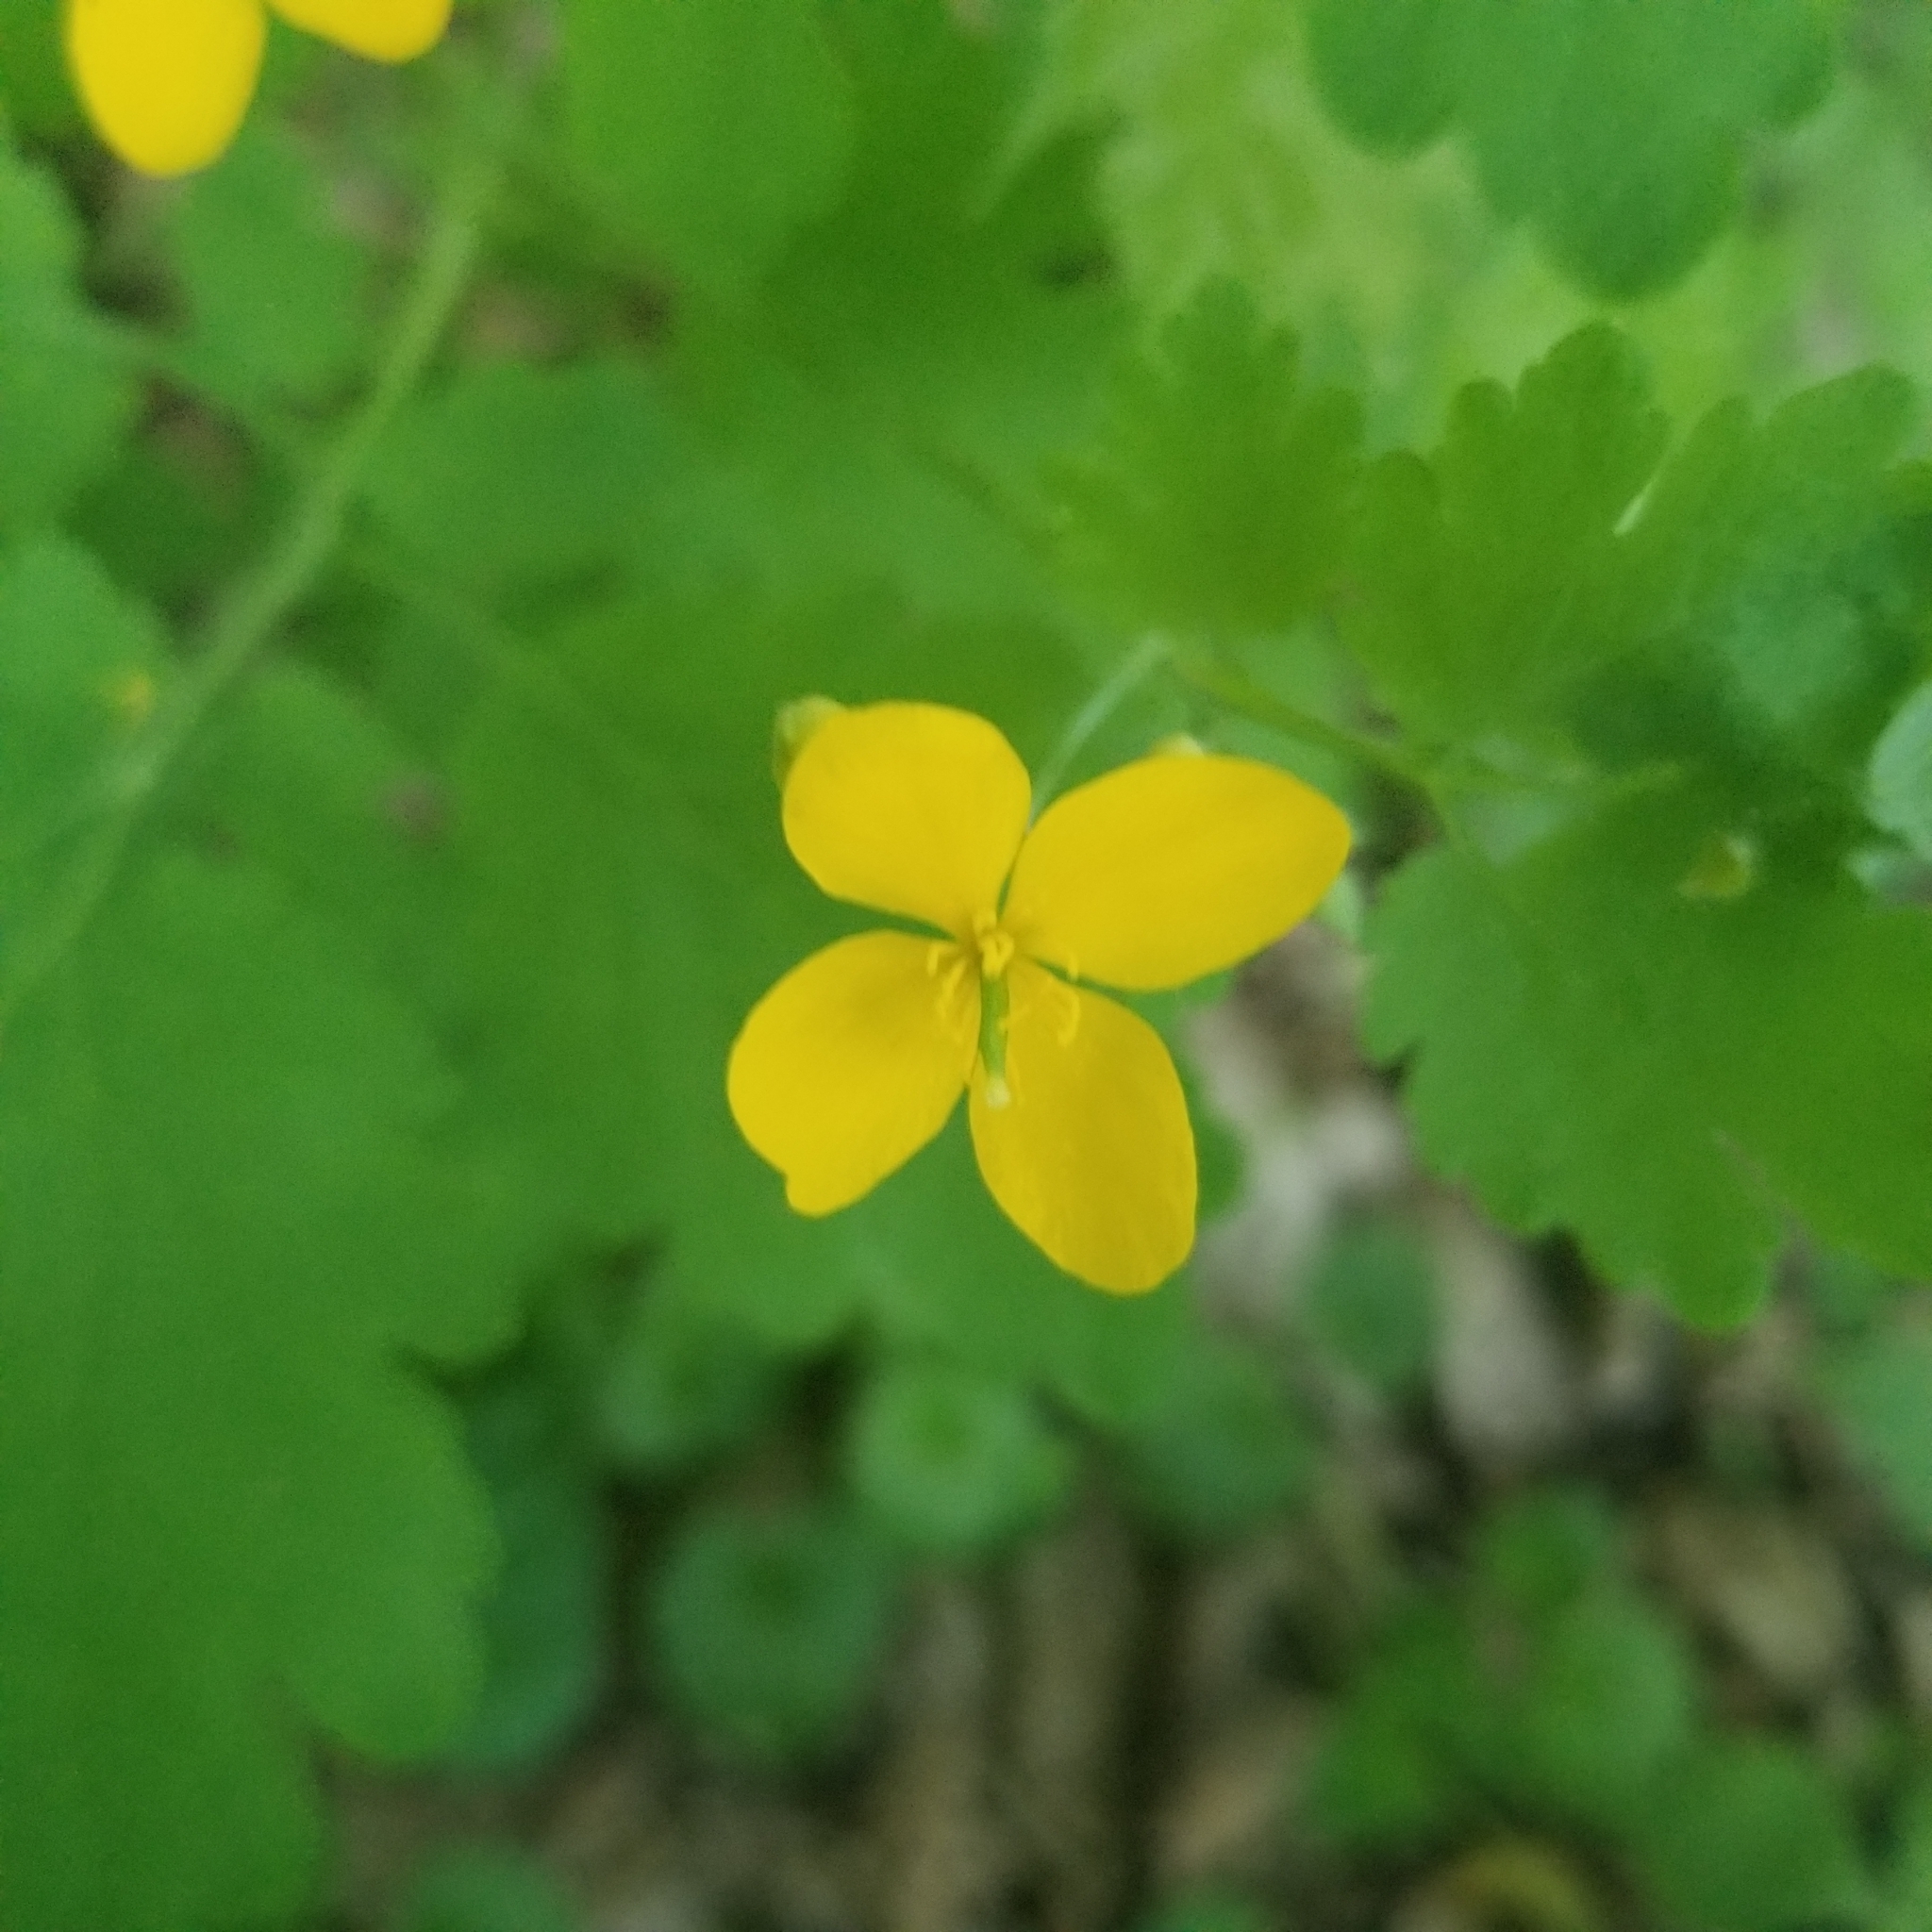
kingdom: Plantae
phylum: Tracheophyta
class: Magnoliopsida
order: Ranunculales
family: Papaveraceae
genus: Chelidonium
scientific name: Chelidonium majus
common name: Greater celandine
